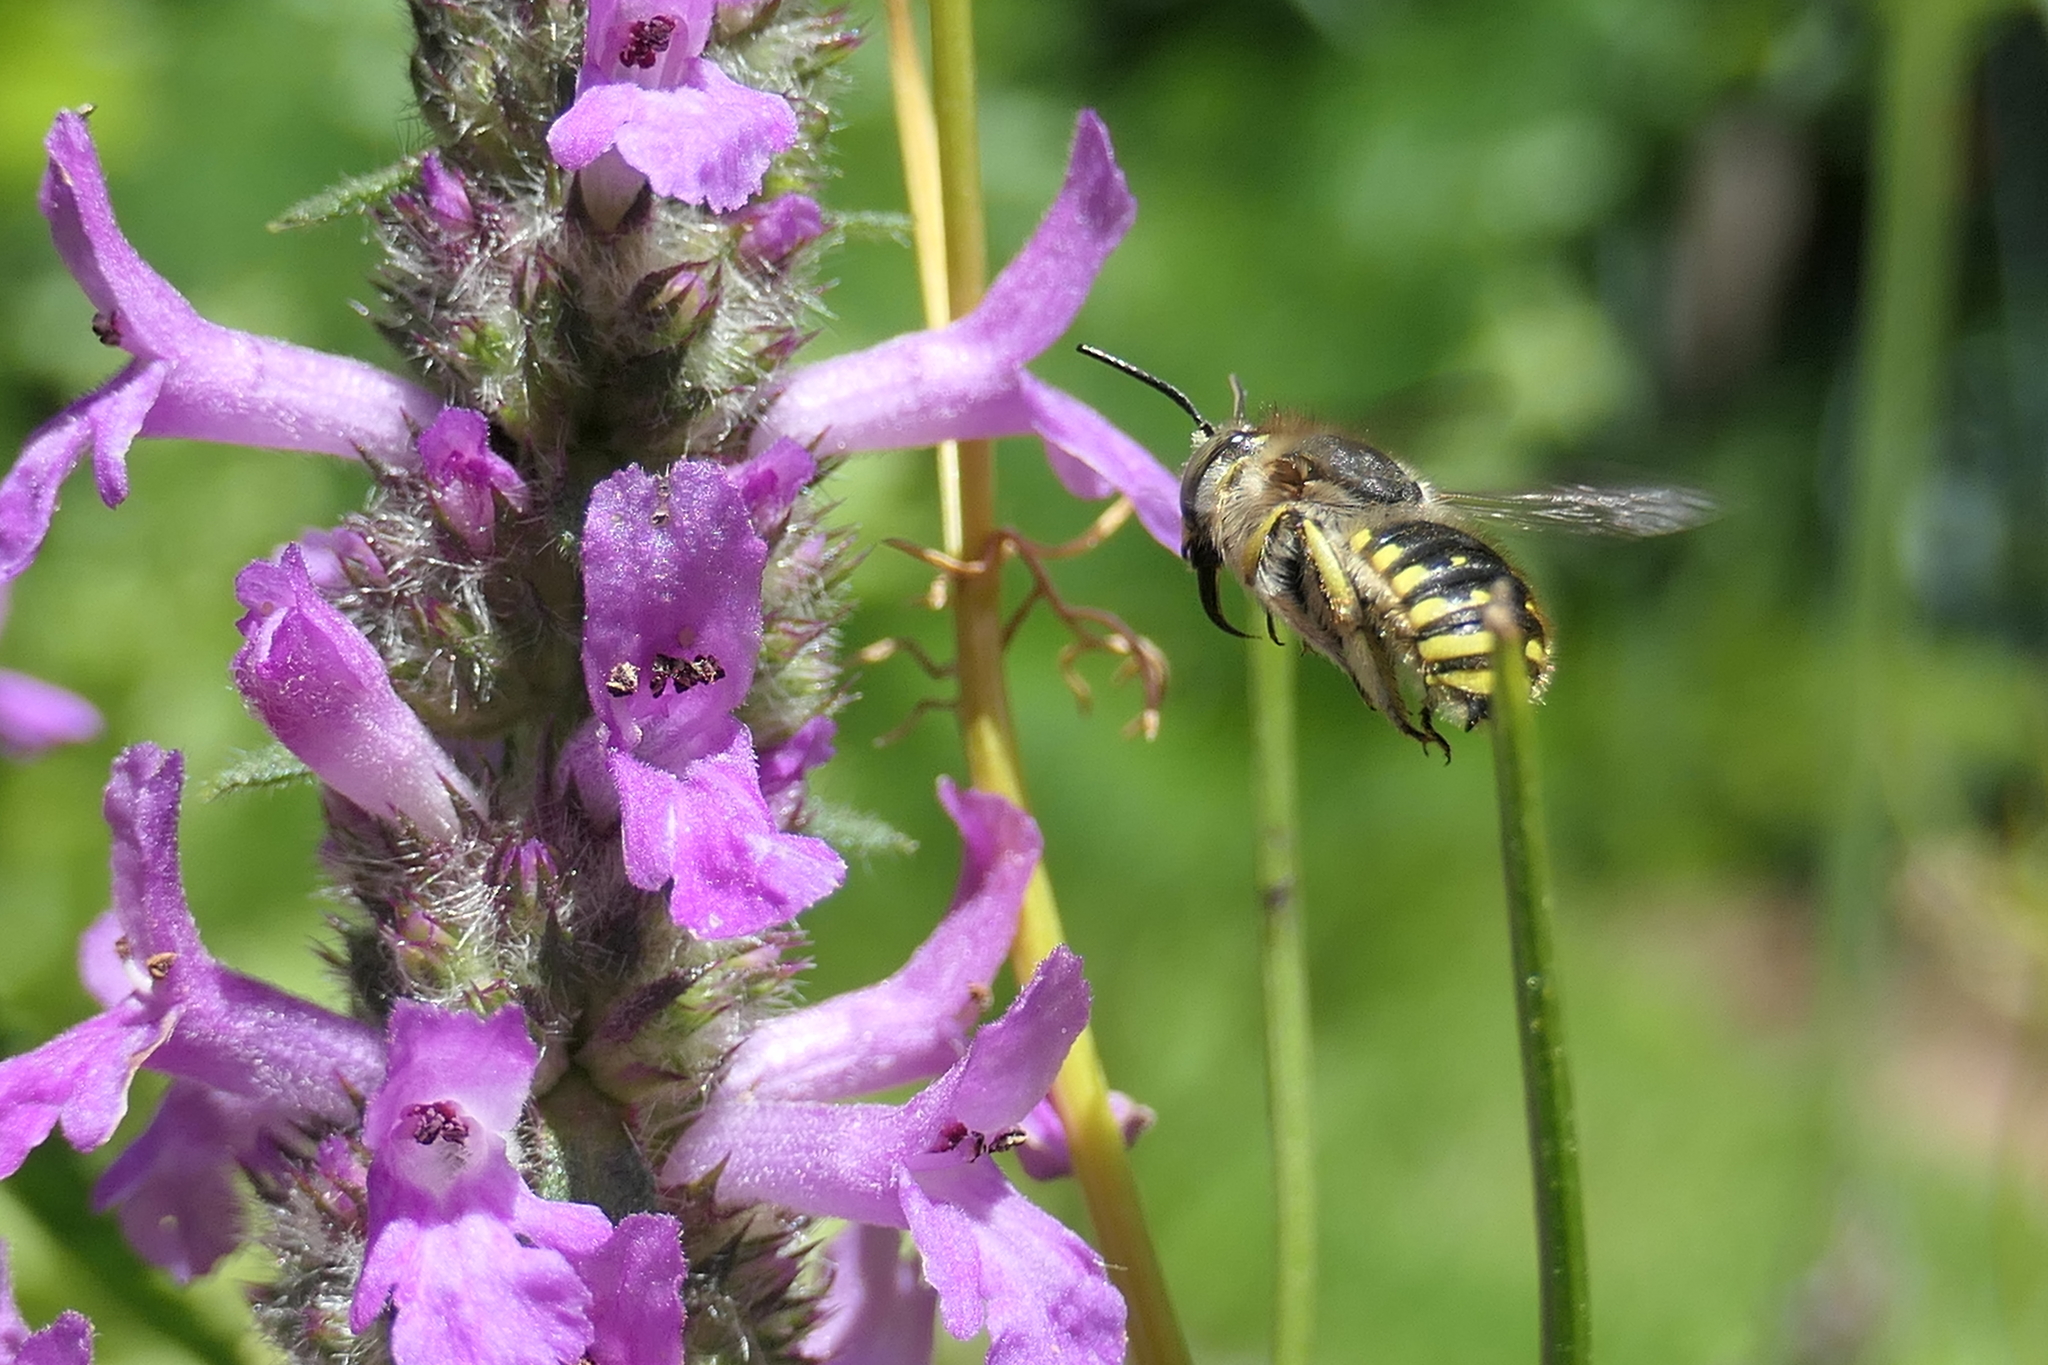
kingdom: Animalia
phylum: Arthropoda
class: Insecta
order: Hymenoptera
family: Megachilidae
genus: Anthidium
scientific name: Anthidium manicatum
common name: Wool carder bee
